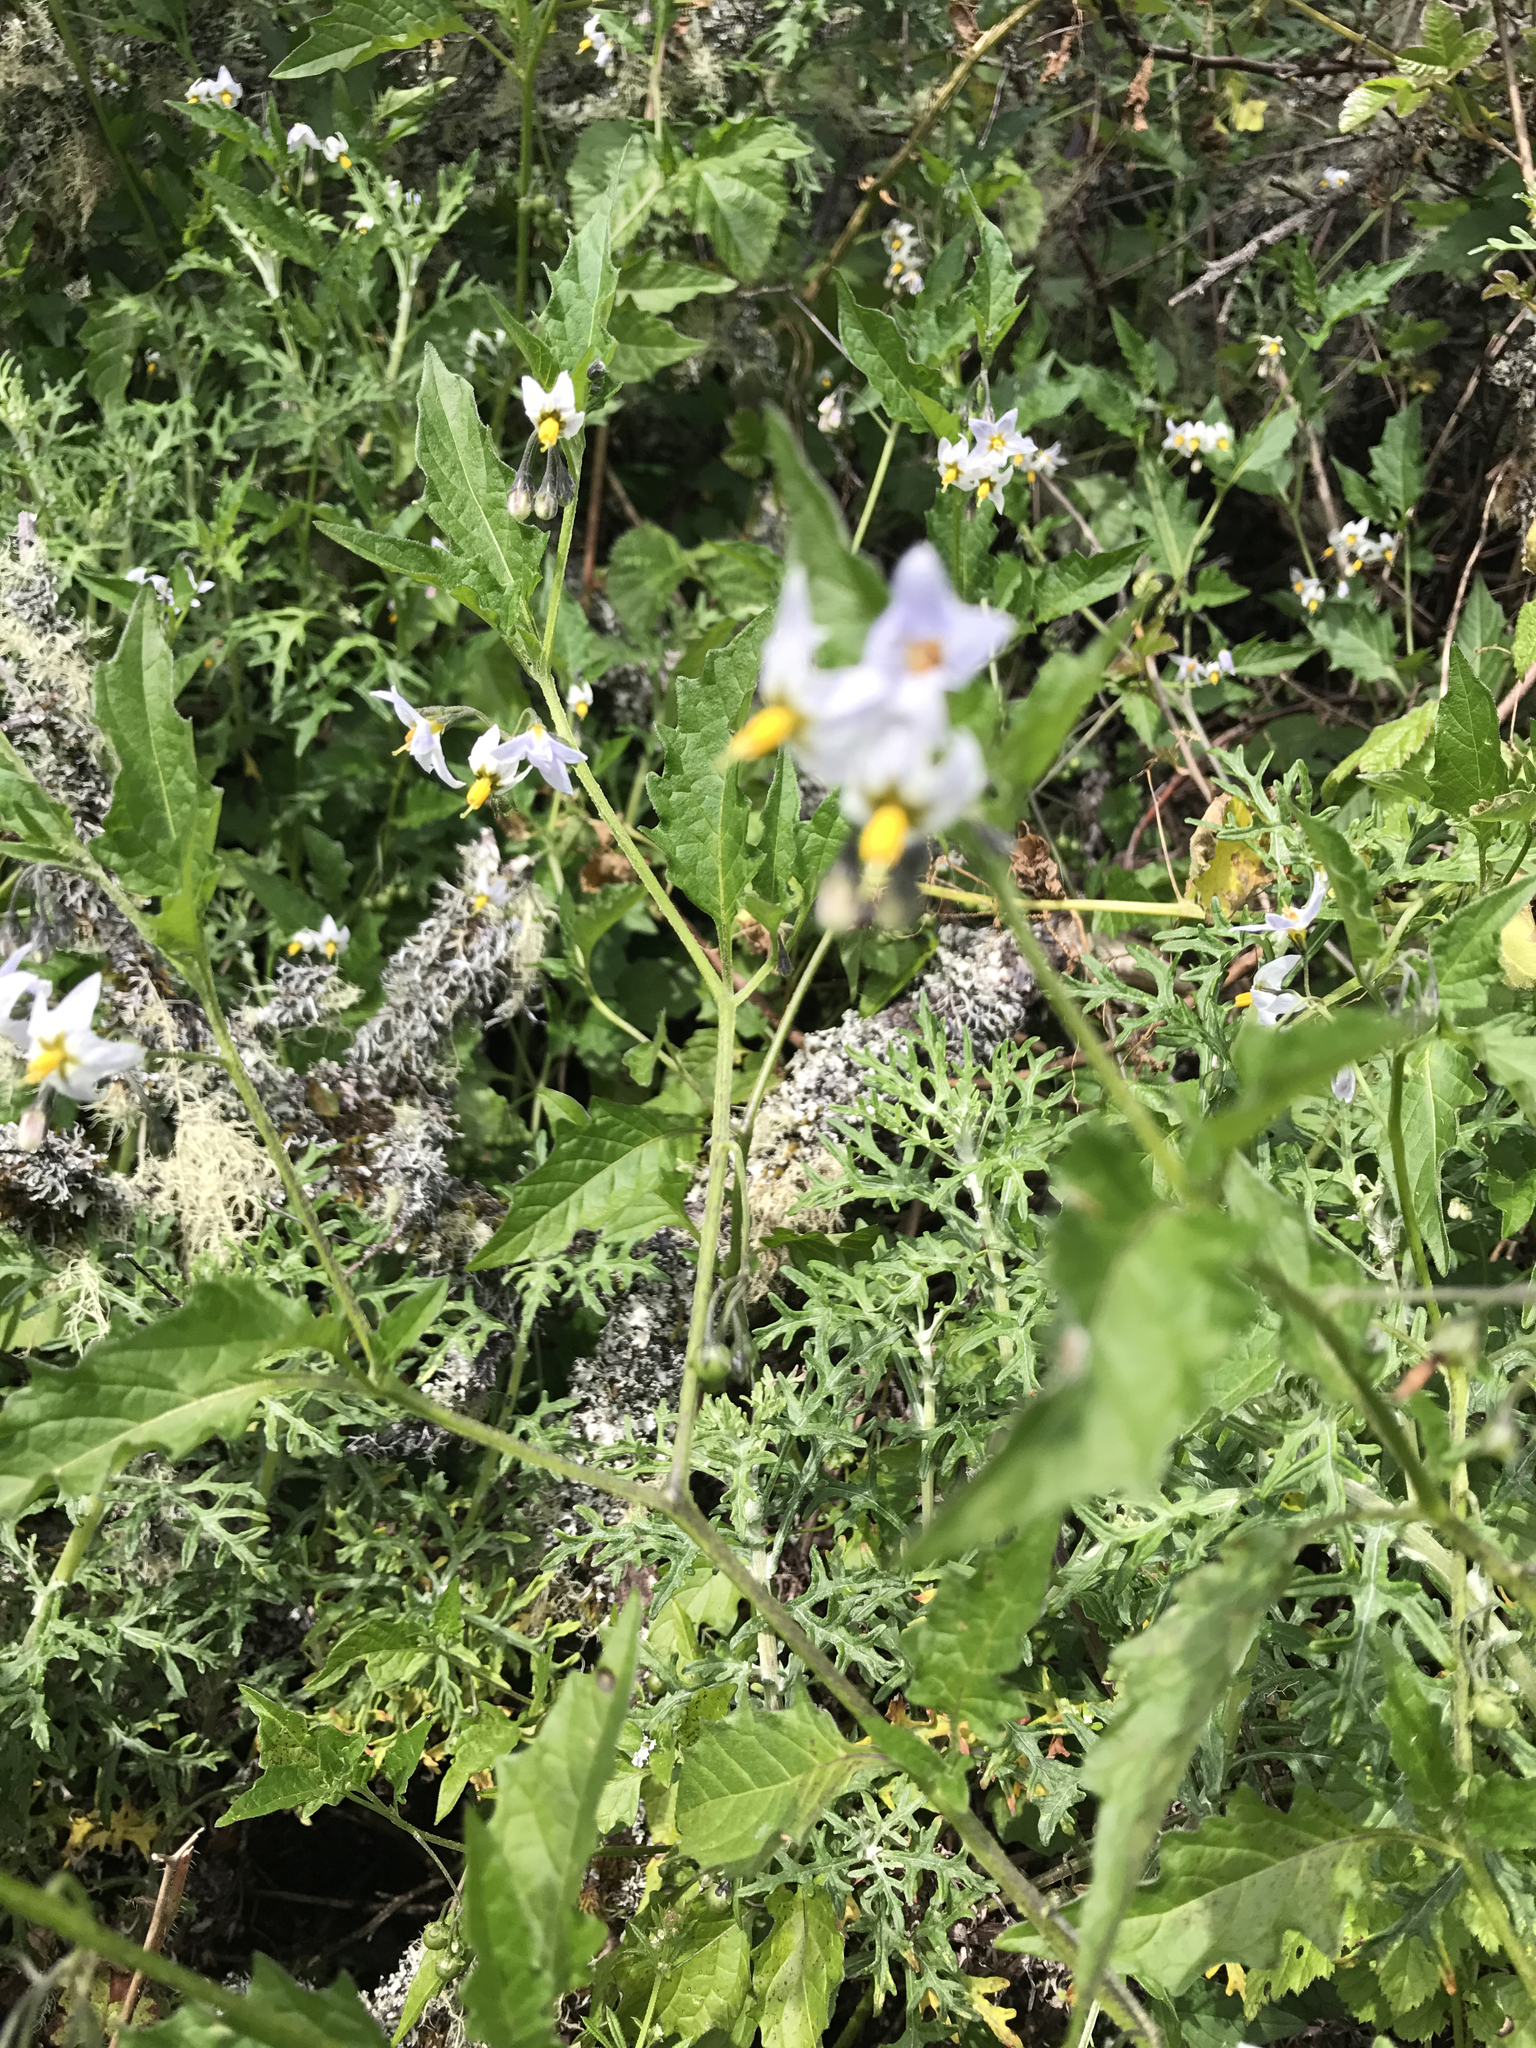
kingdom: Plantae
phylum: Tracheophyta
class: Magnoliopsida
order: Solanales
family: Solanaceae
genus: Solanum
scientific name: Solanum douglasii
